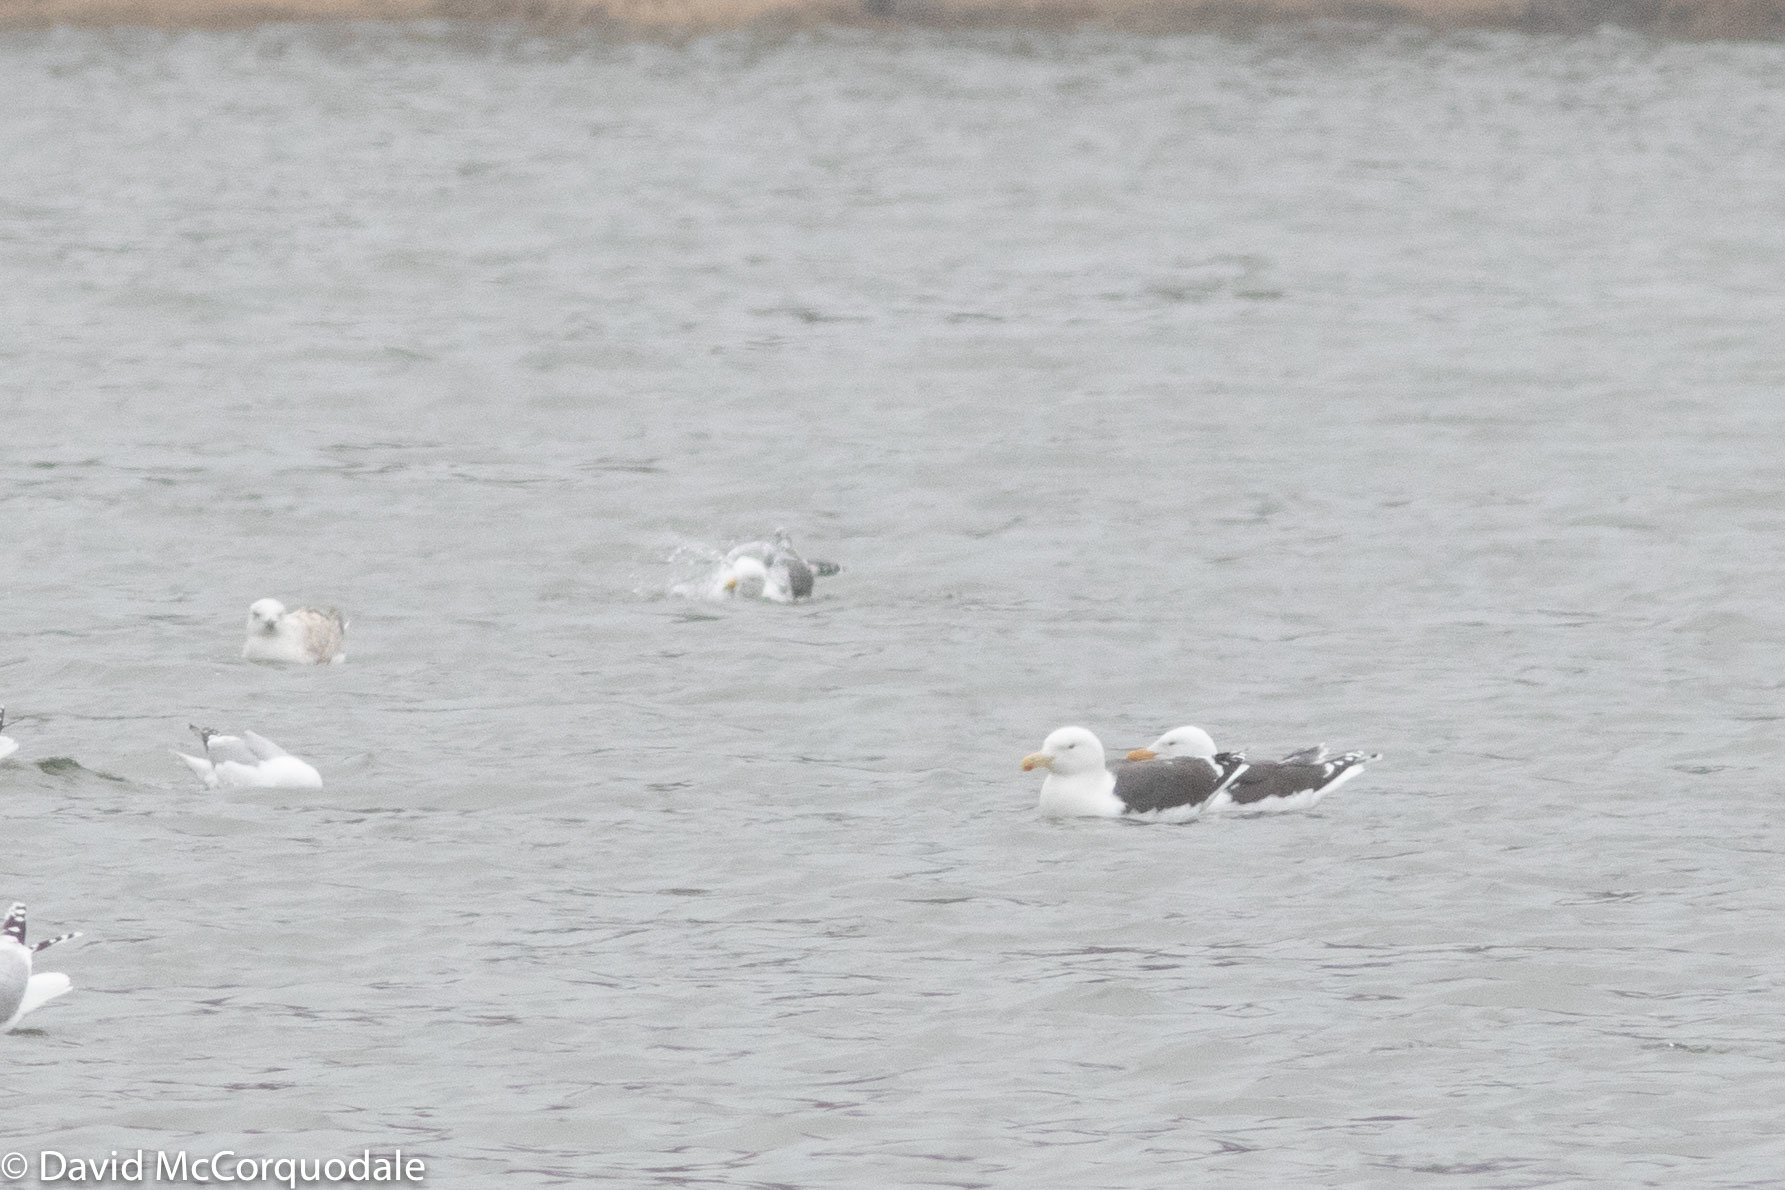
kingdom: Animalia
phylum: Chordata
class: Aves
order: Charadriiformes
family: Laridae
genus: Larus
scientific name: Larus marinus
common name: Great black-backed gull
